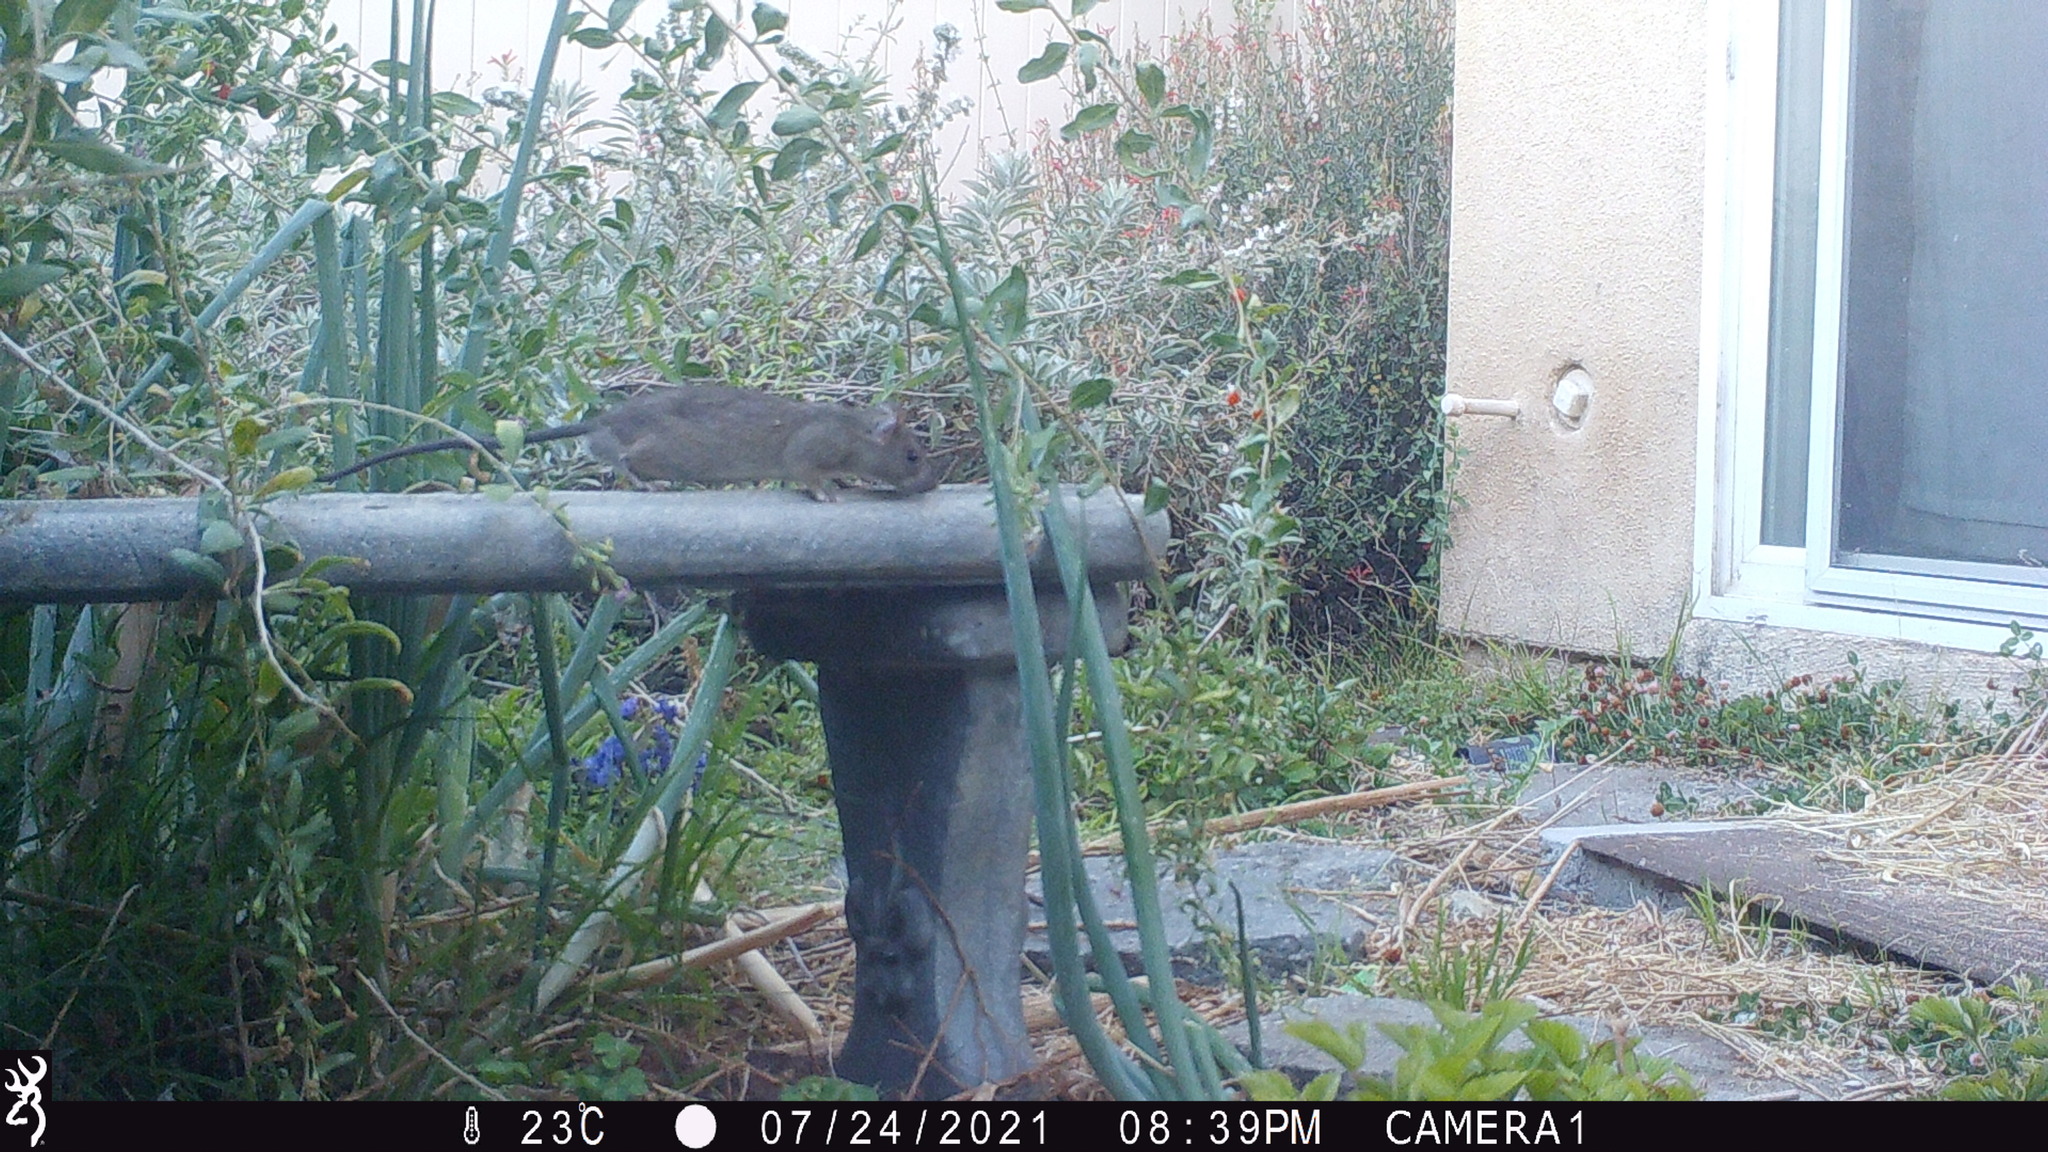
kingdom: Animalia
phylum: Chordata
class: Mammalia
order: Rodentia
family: Muridae
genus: Rattus
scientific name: Rattus rattus
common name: Black rat
